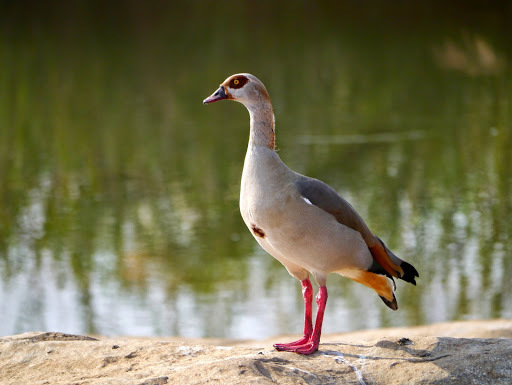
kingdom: Animalia
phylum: Chordata
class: Aves
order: Anseriformes
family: Anatidae
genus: Alopochen
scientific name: Alopochen aegyptiaca
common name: Egyptian goose
